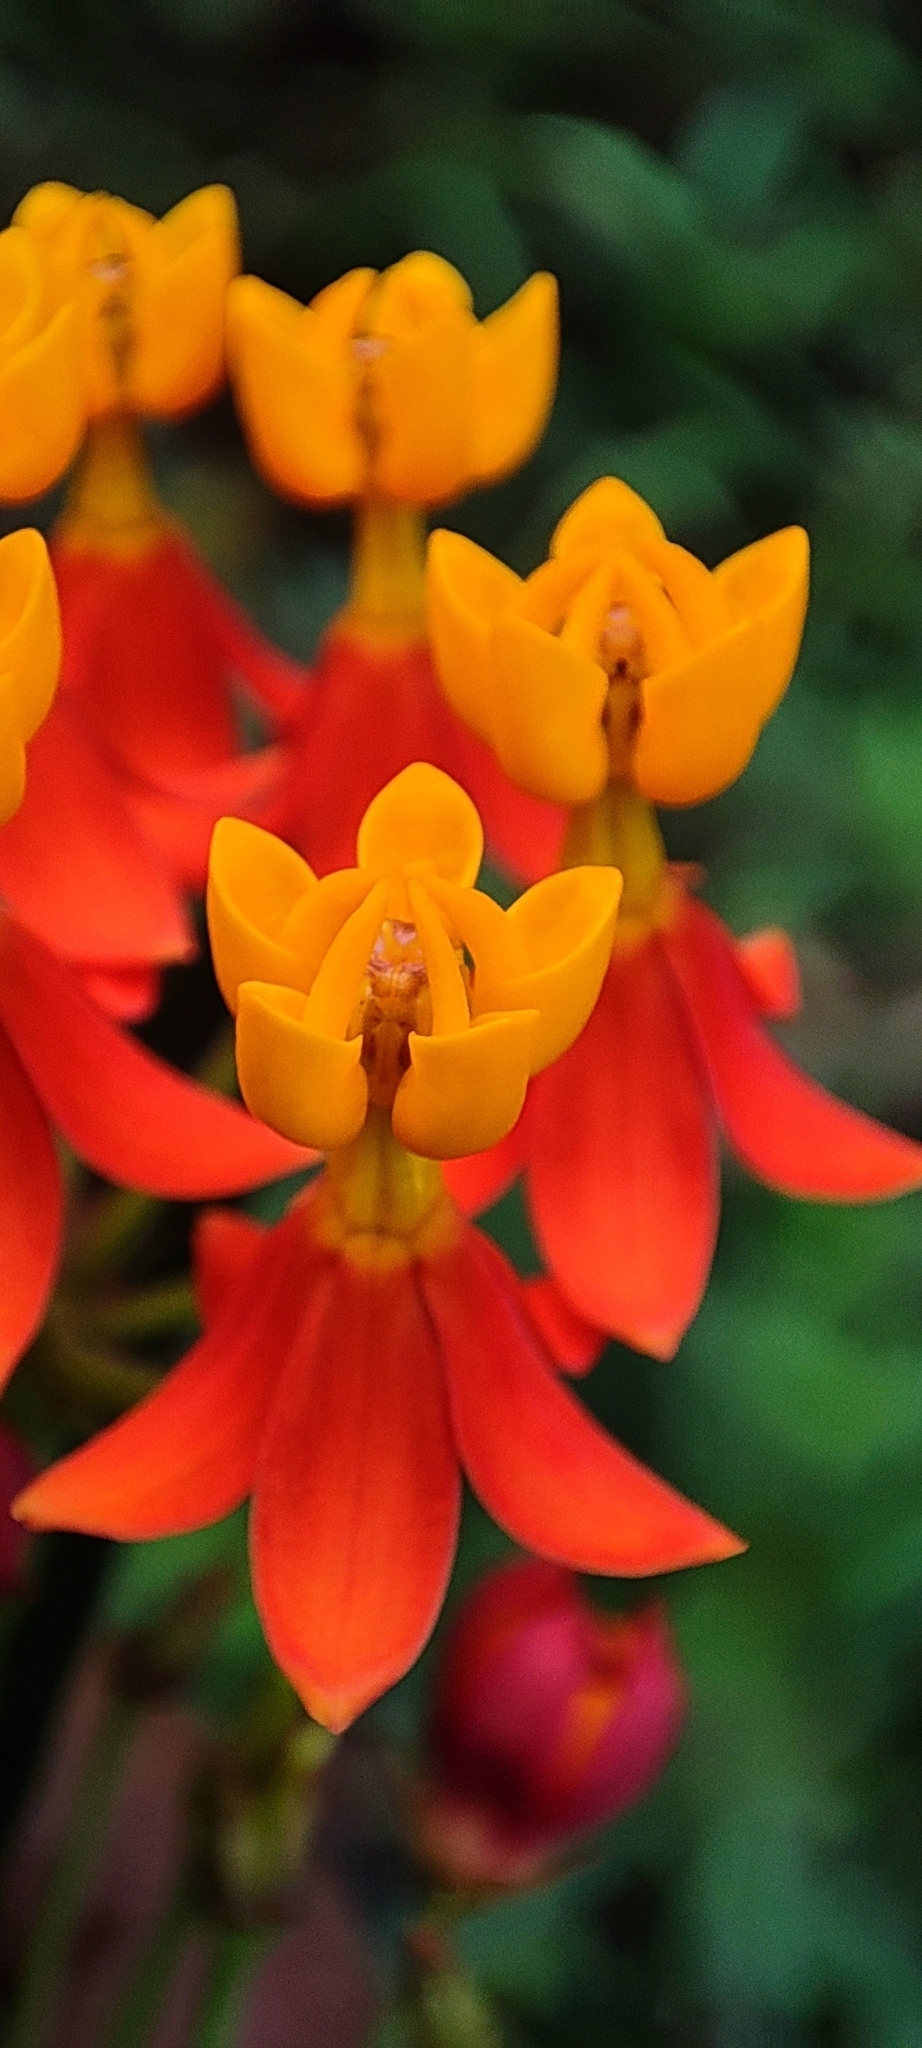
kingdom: Plantae
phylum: Tracheophyta
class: Magnoliopsida
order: Gentianales
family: Apocynaceae
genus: Asclepias
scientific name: Asclepias curassavica
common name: Bloodflower
